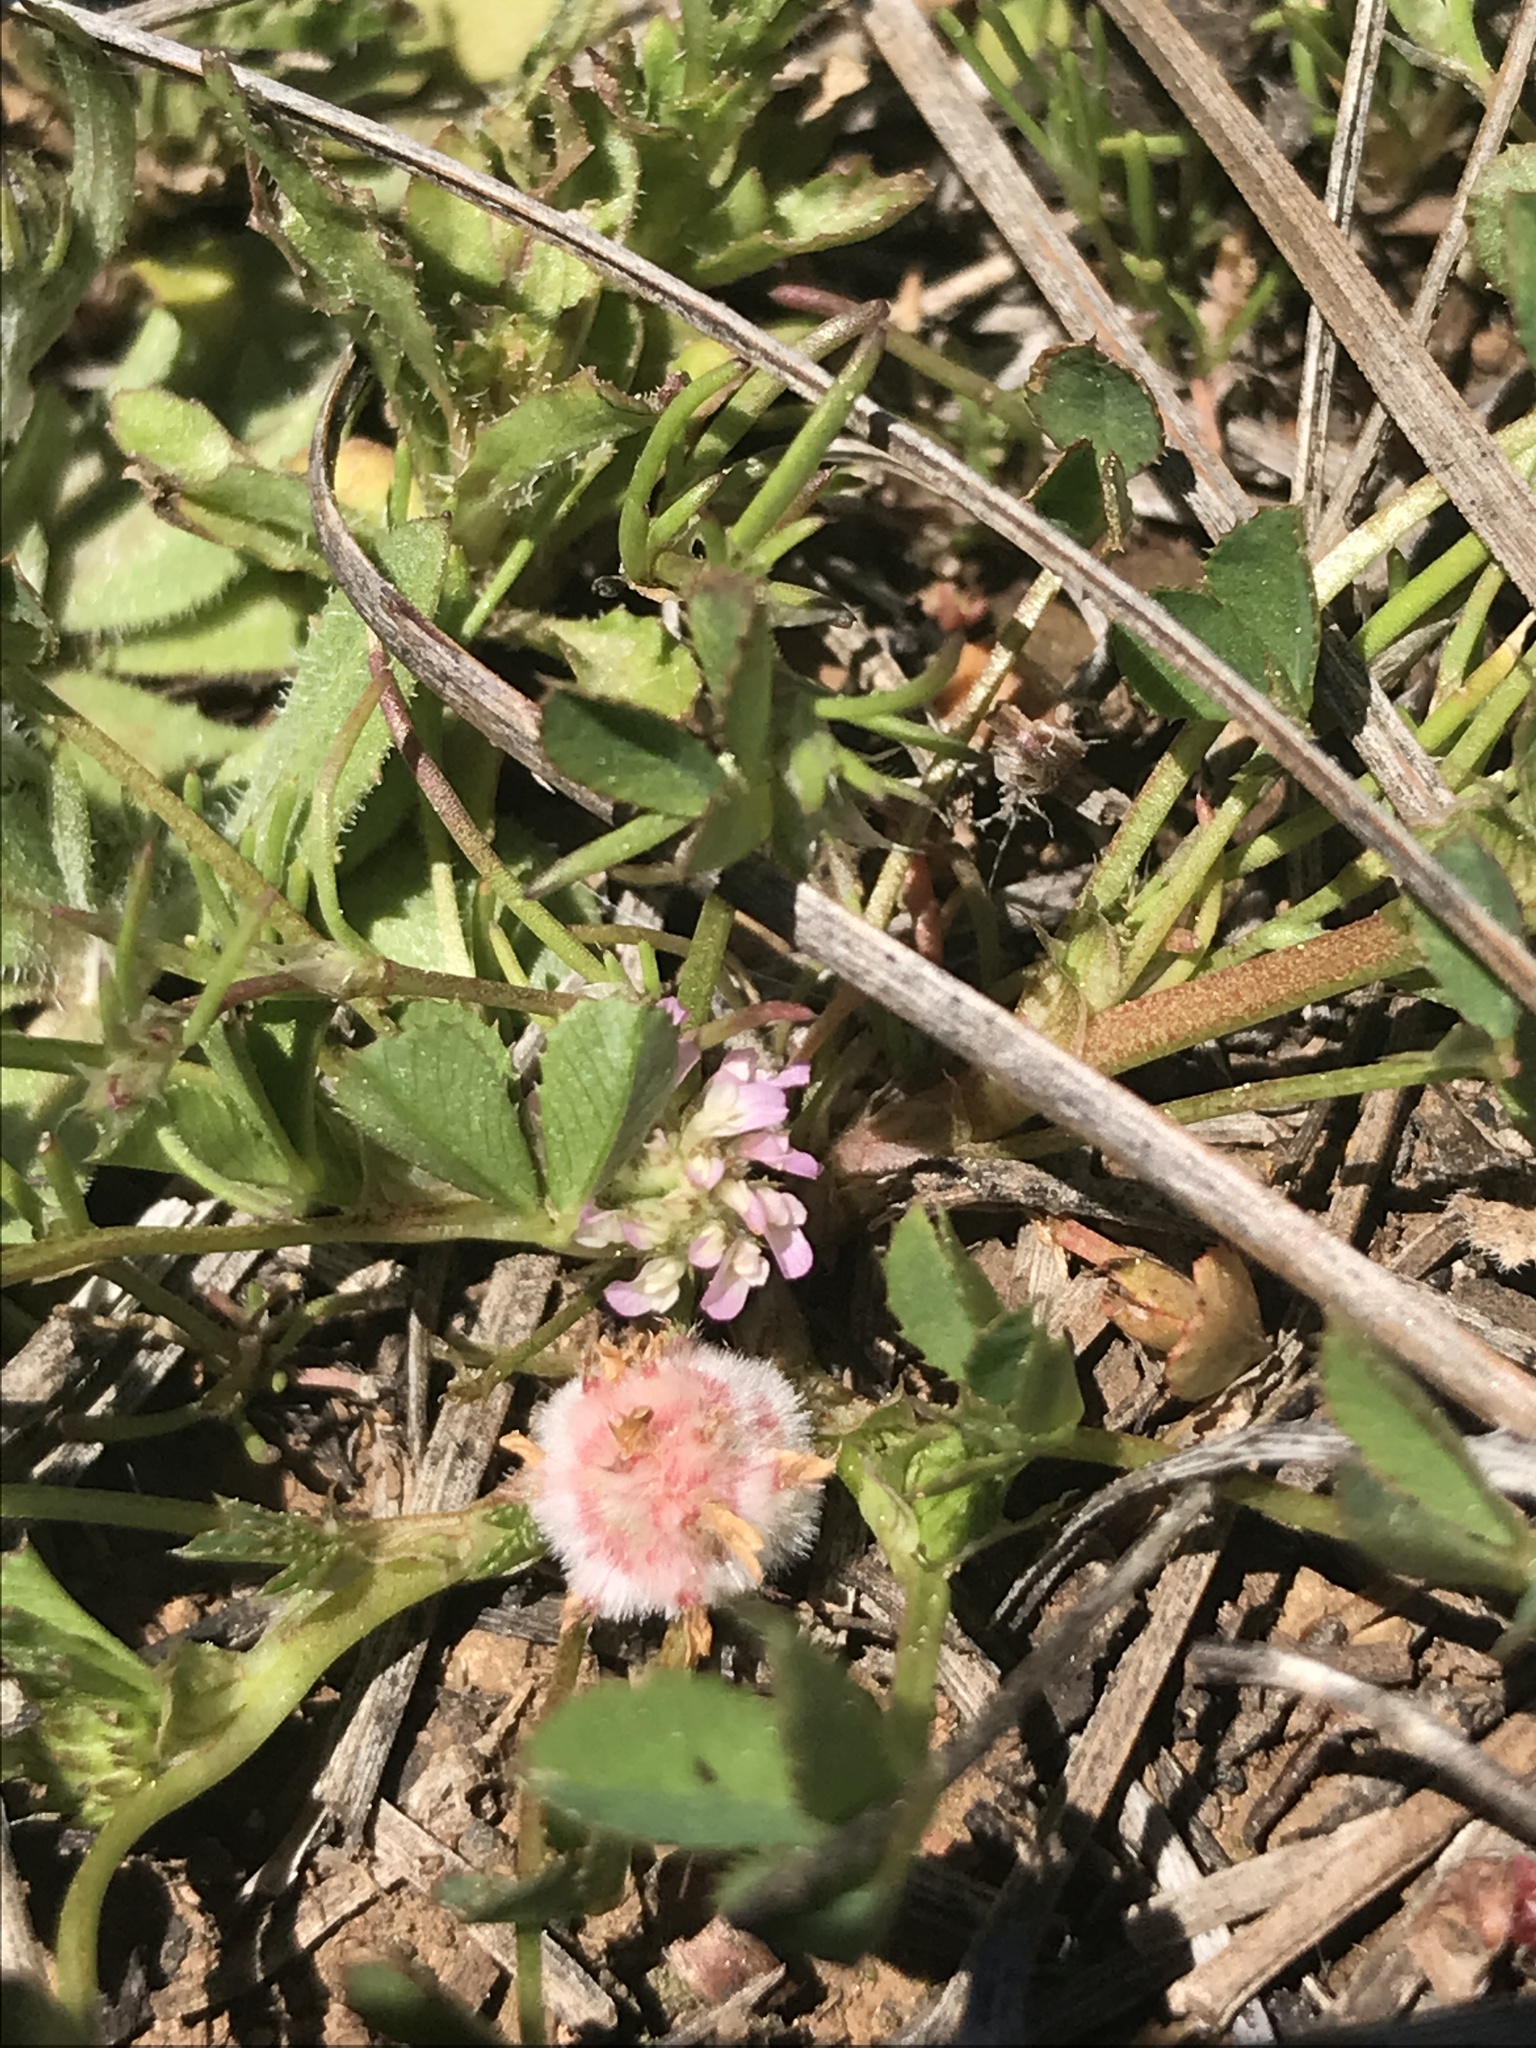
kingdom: Plantae
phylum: Tracheophyta
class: Magnoliopsida
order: Fabales
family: Fabaceae
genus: Trifolium
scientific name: Trifolium tomentosum
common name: Woolly clover
